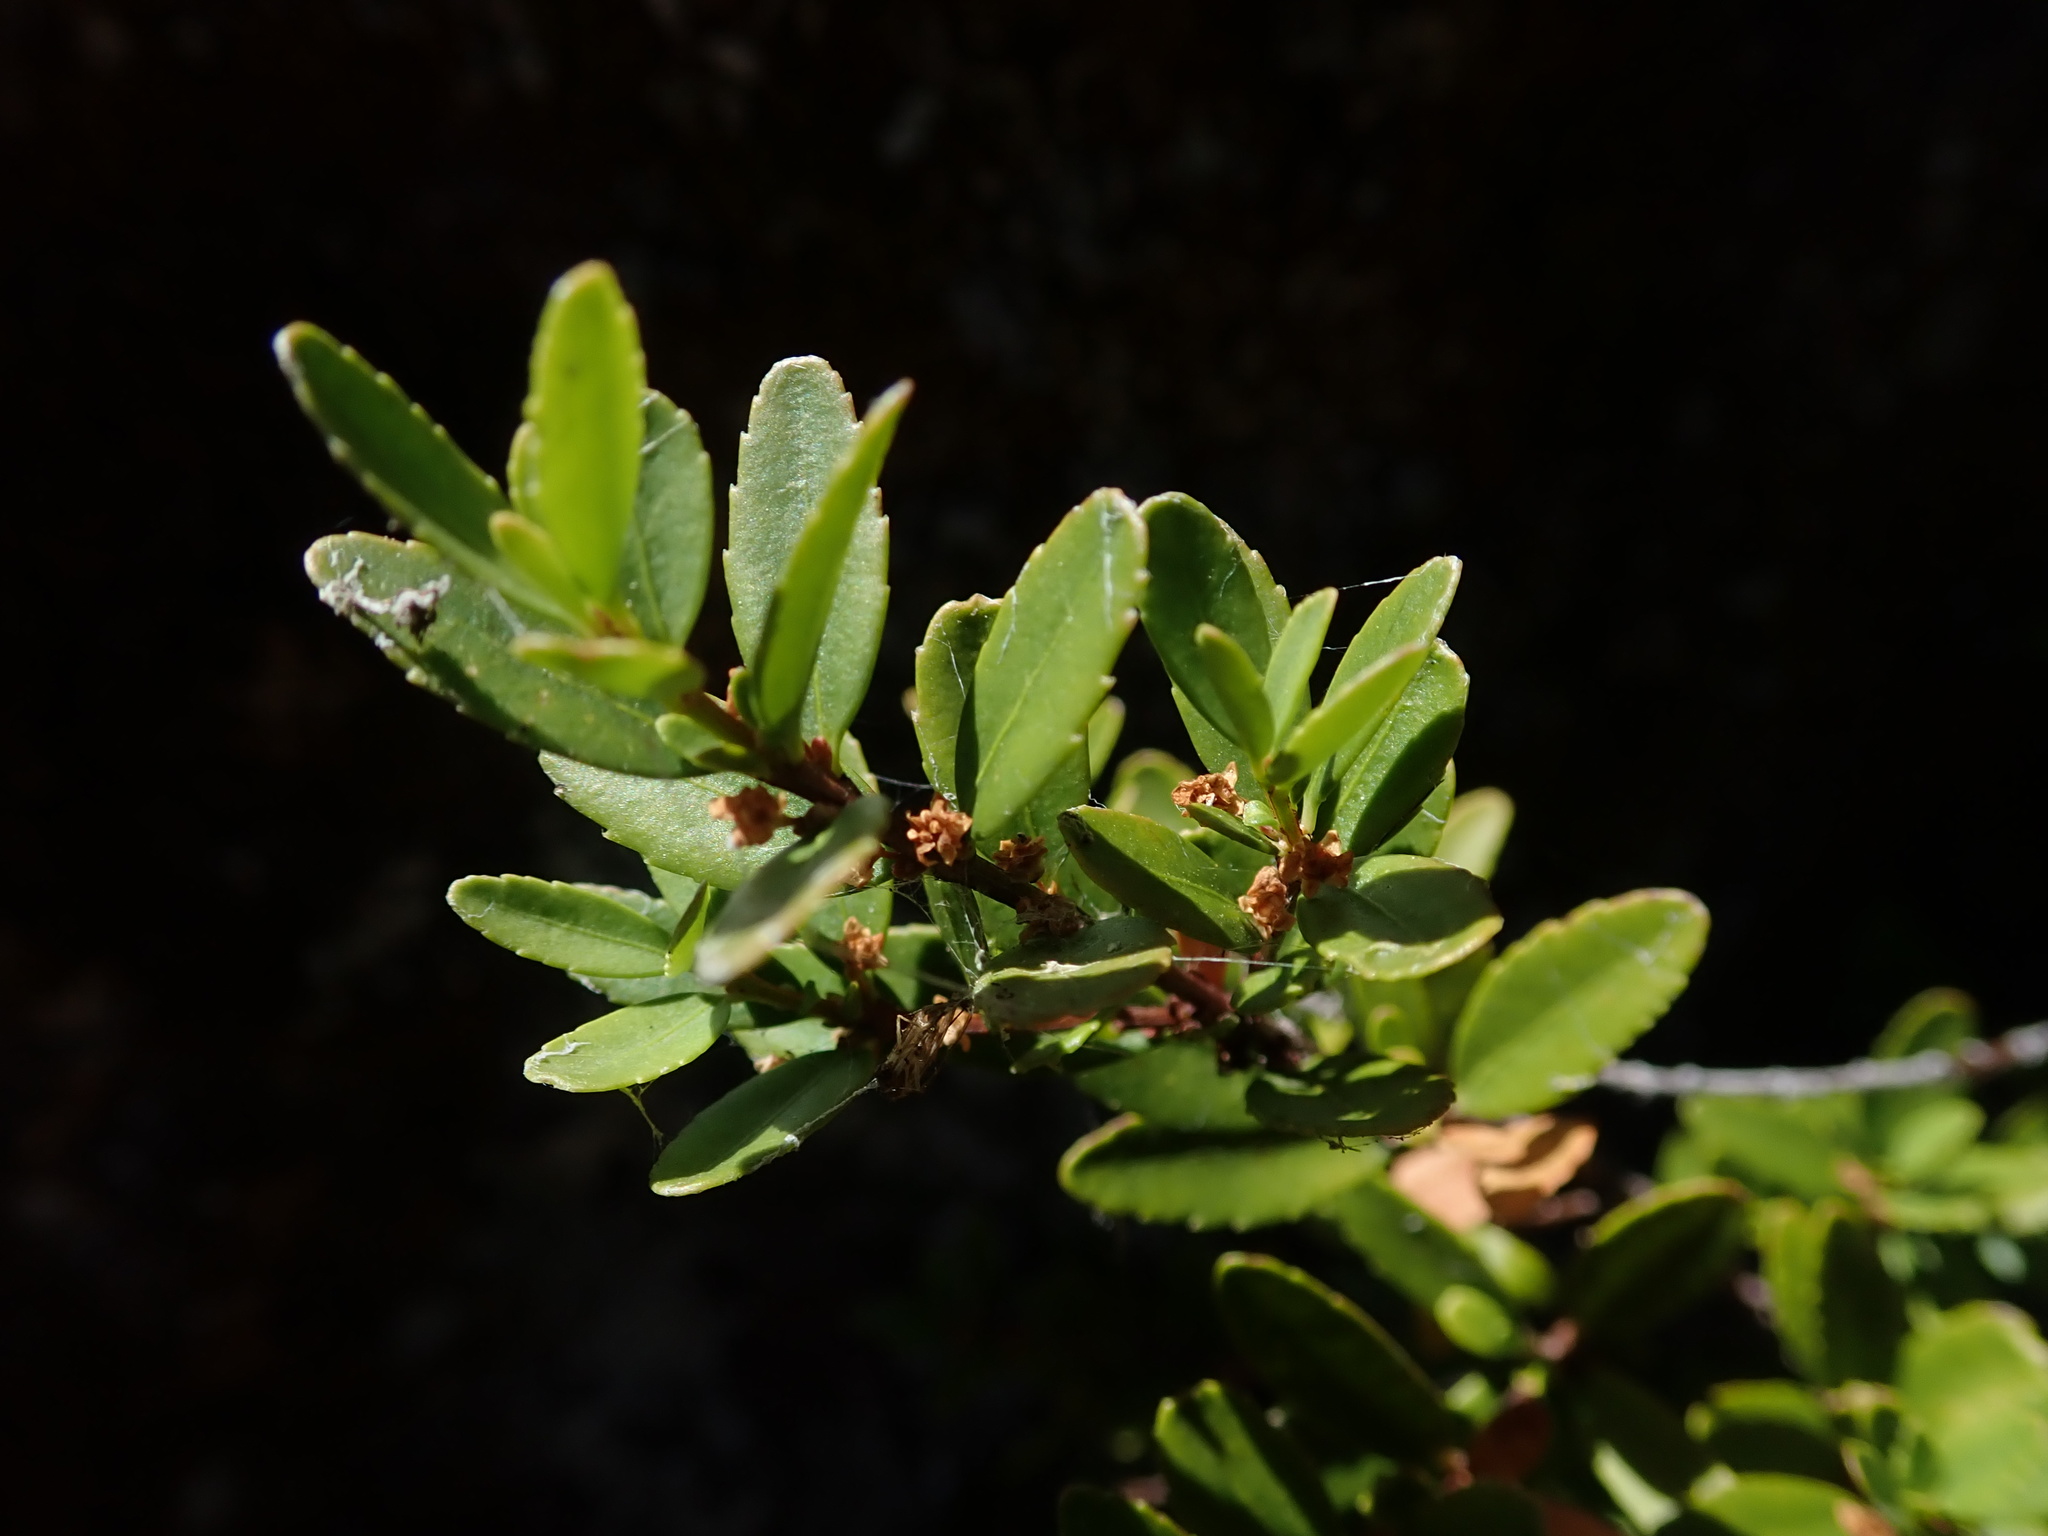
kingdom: Plantae
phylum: Tracheophyta
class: Magnoliopsida
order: Celastrales
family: Celastraceae
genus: Paxistima
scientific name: Paxistima myrsinites
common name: Mountain-lover
